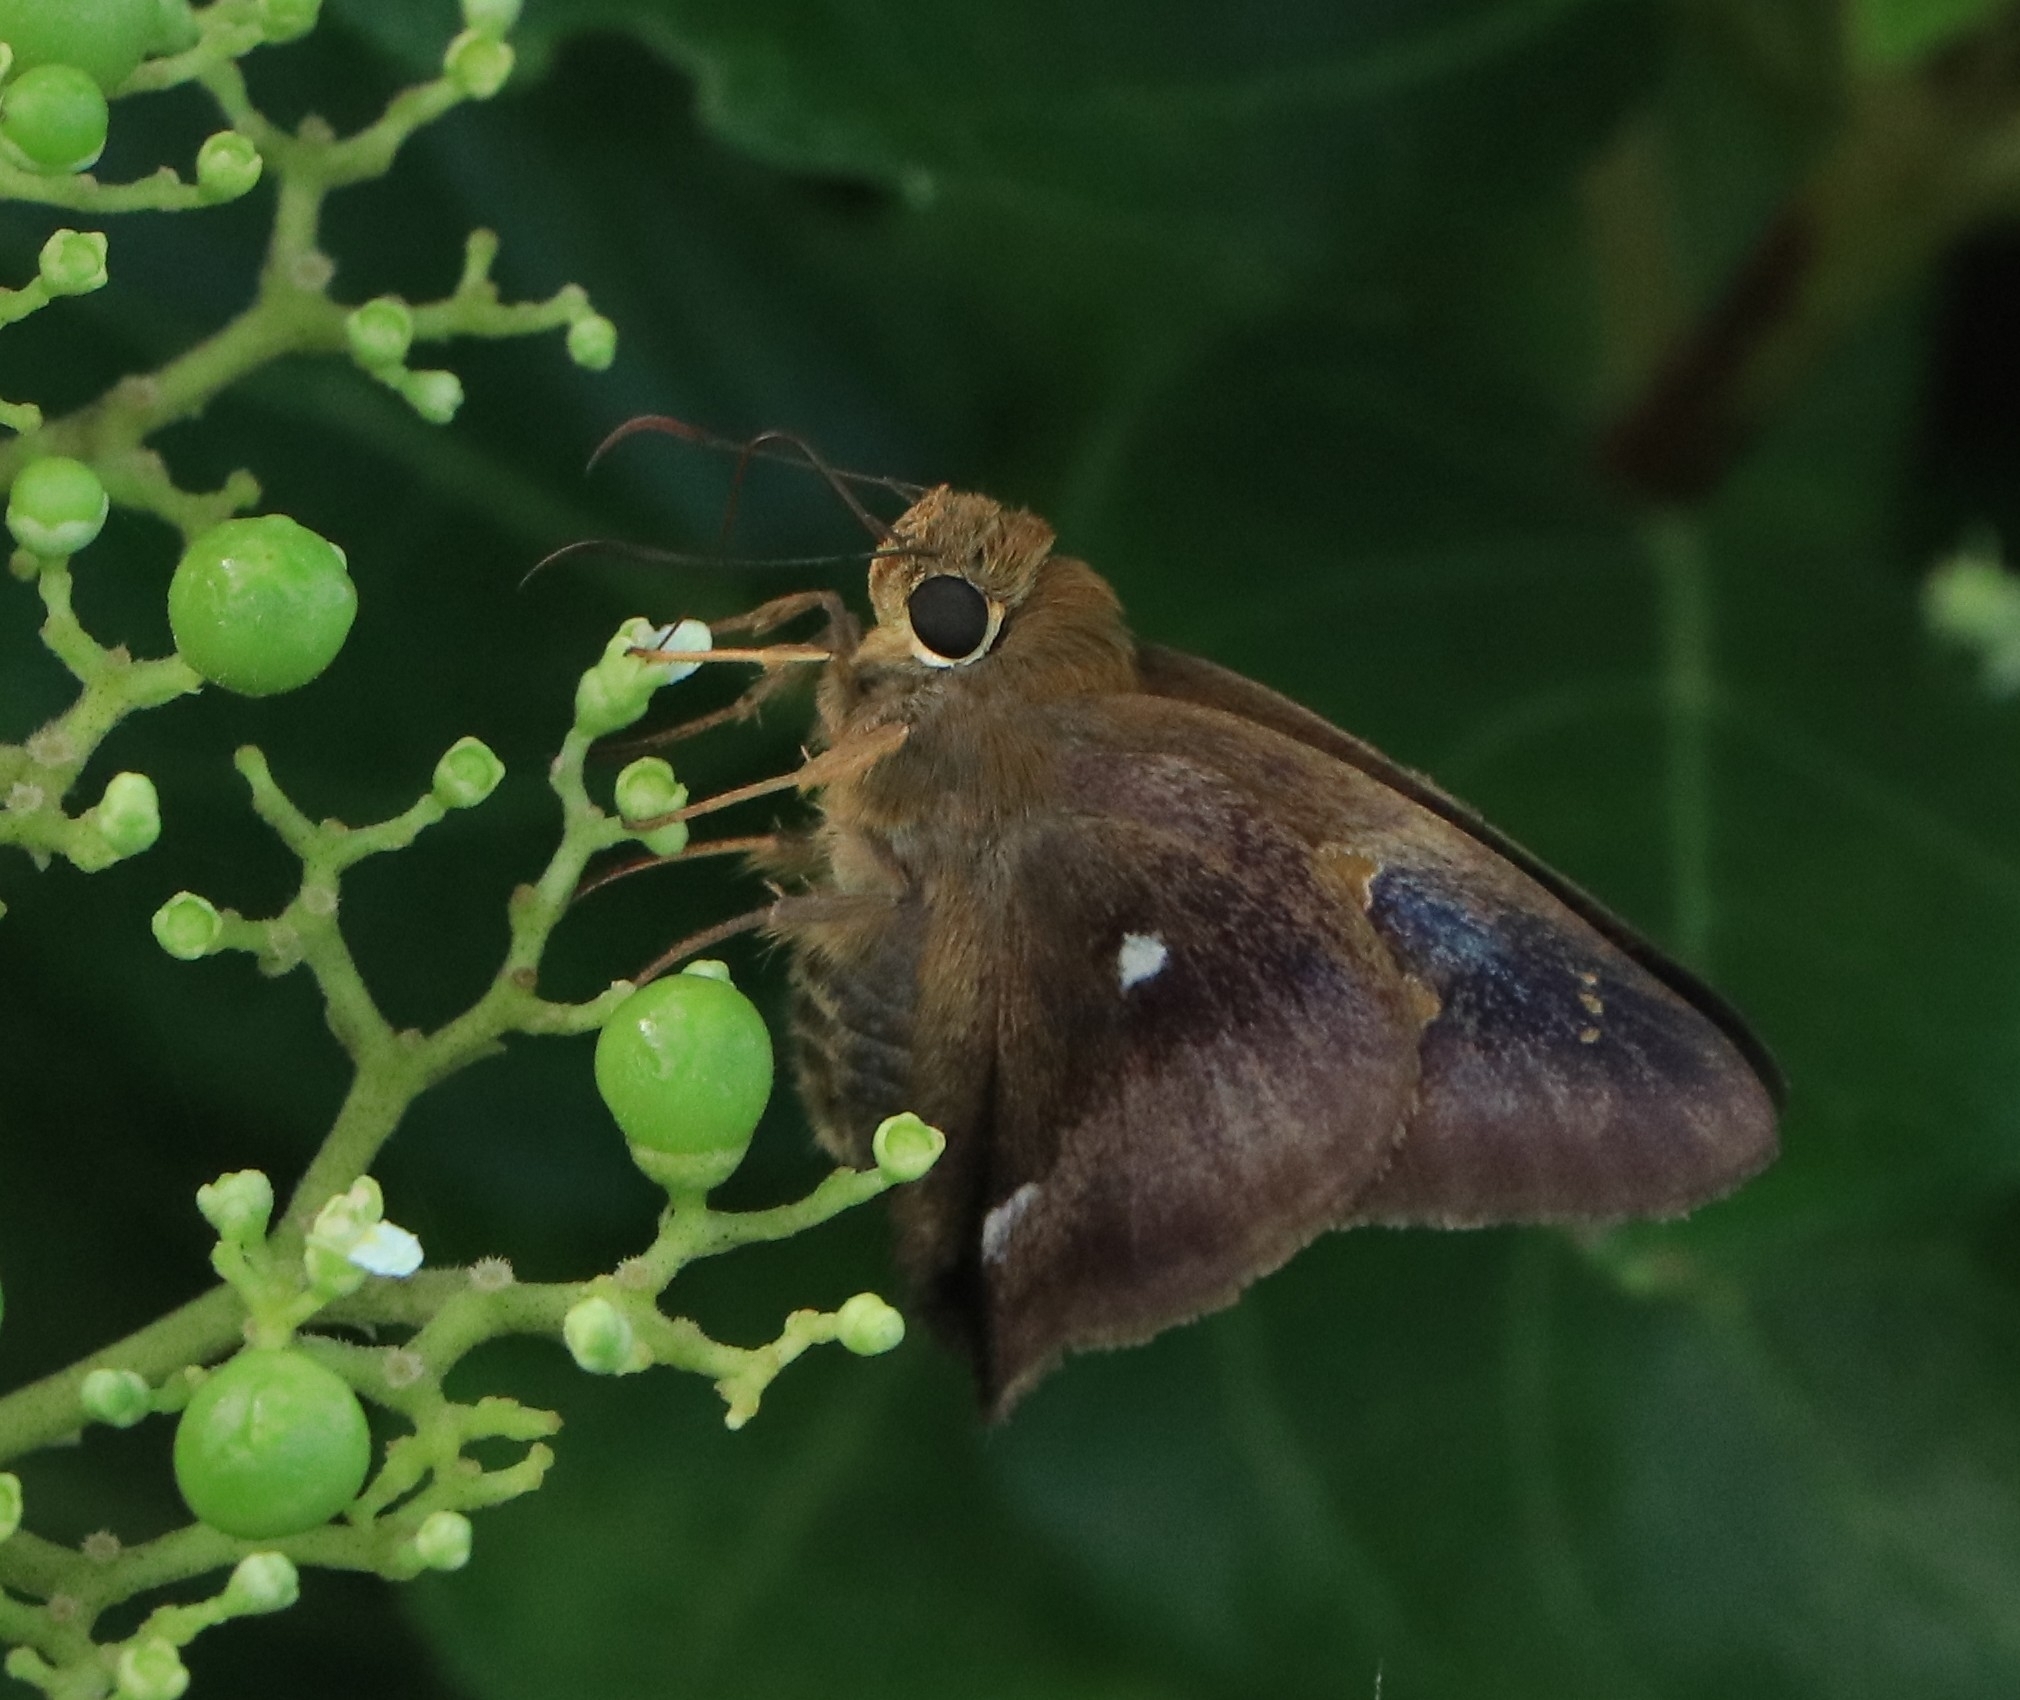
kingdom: Animalia
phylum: Arthropoda
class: Insecta
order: Lepidoptera
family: Hesperiidae
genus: Hasora
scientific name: Hasora badra
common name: Common awl
